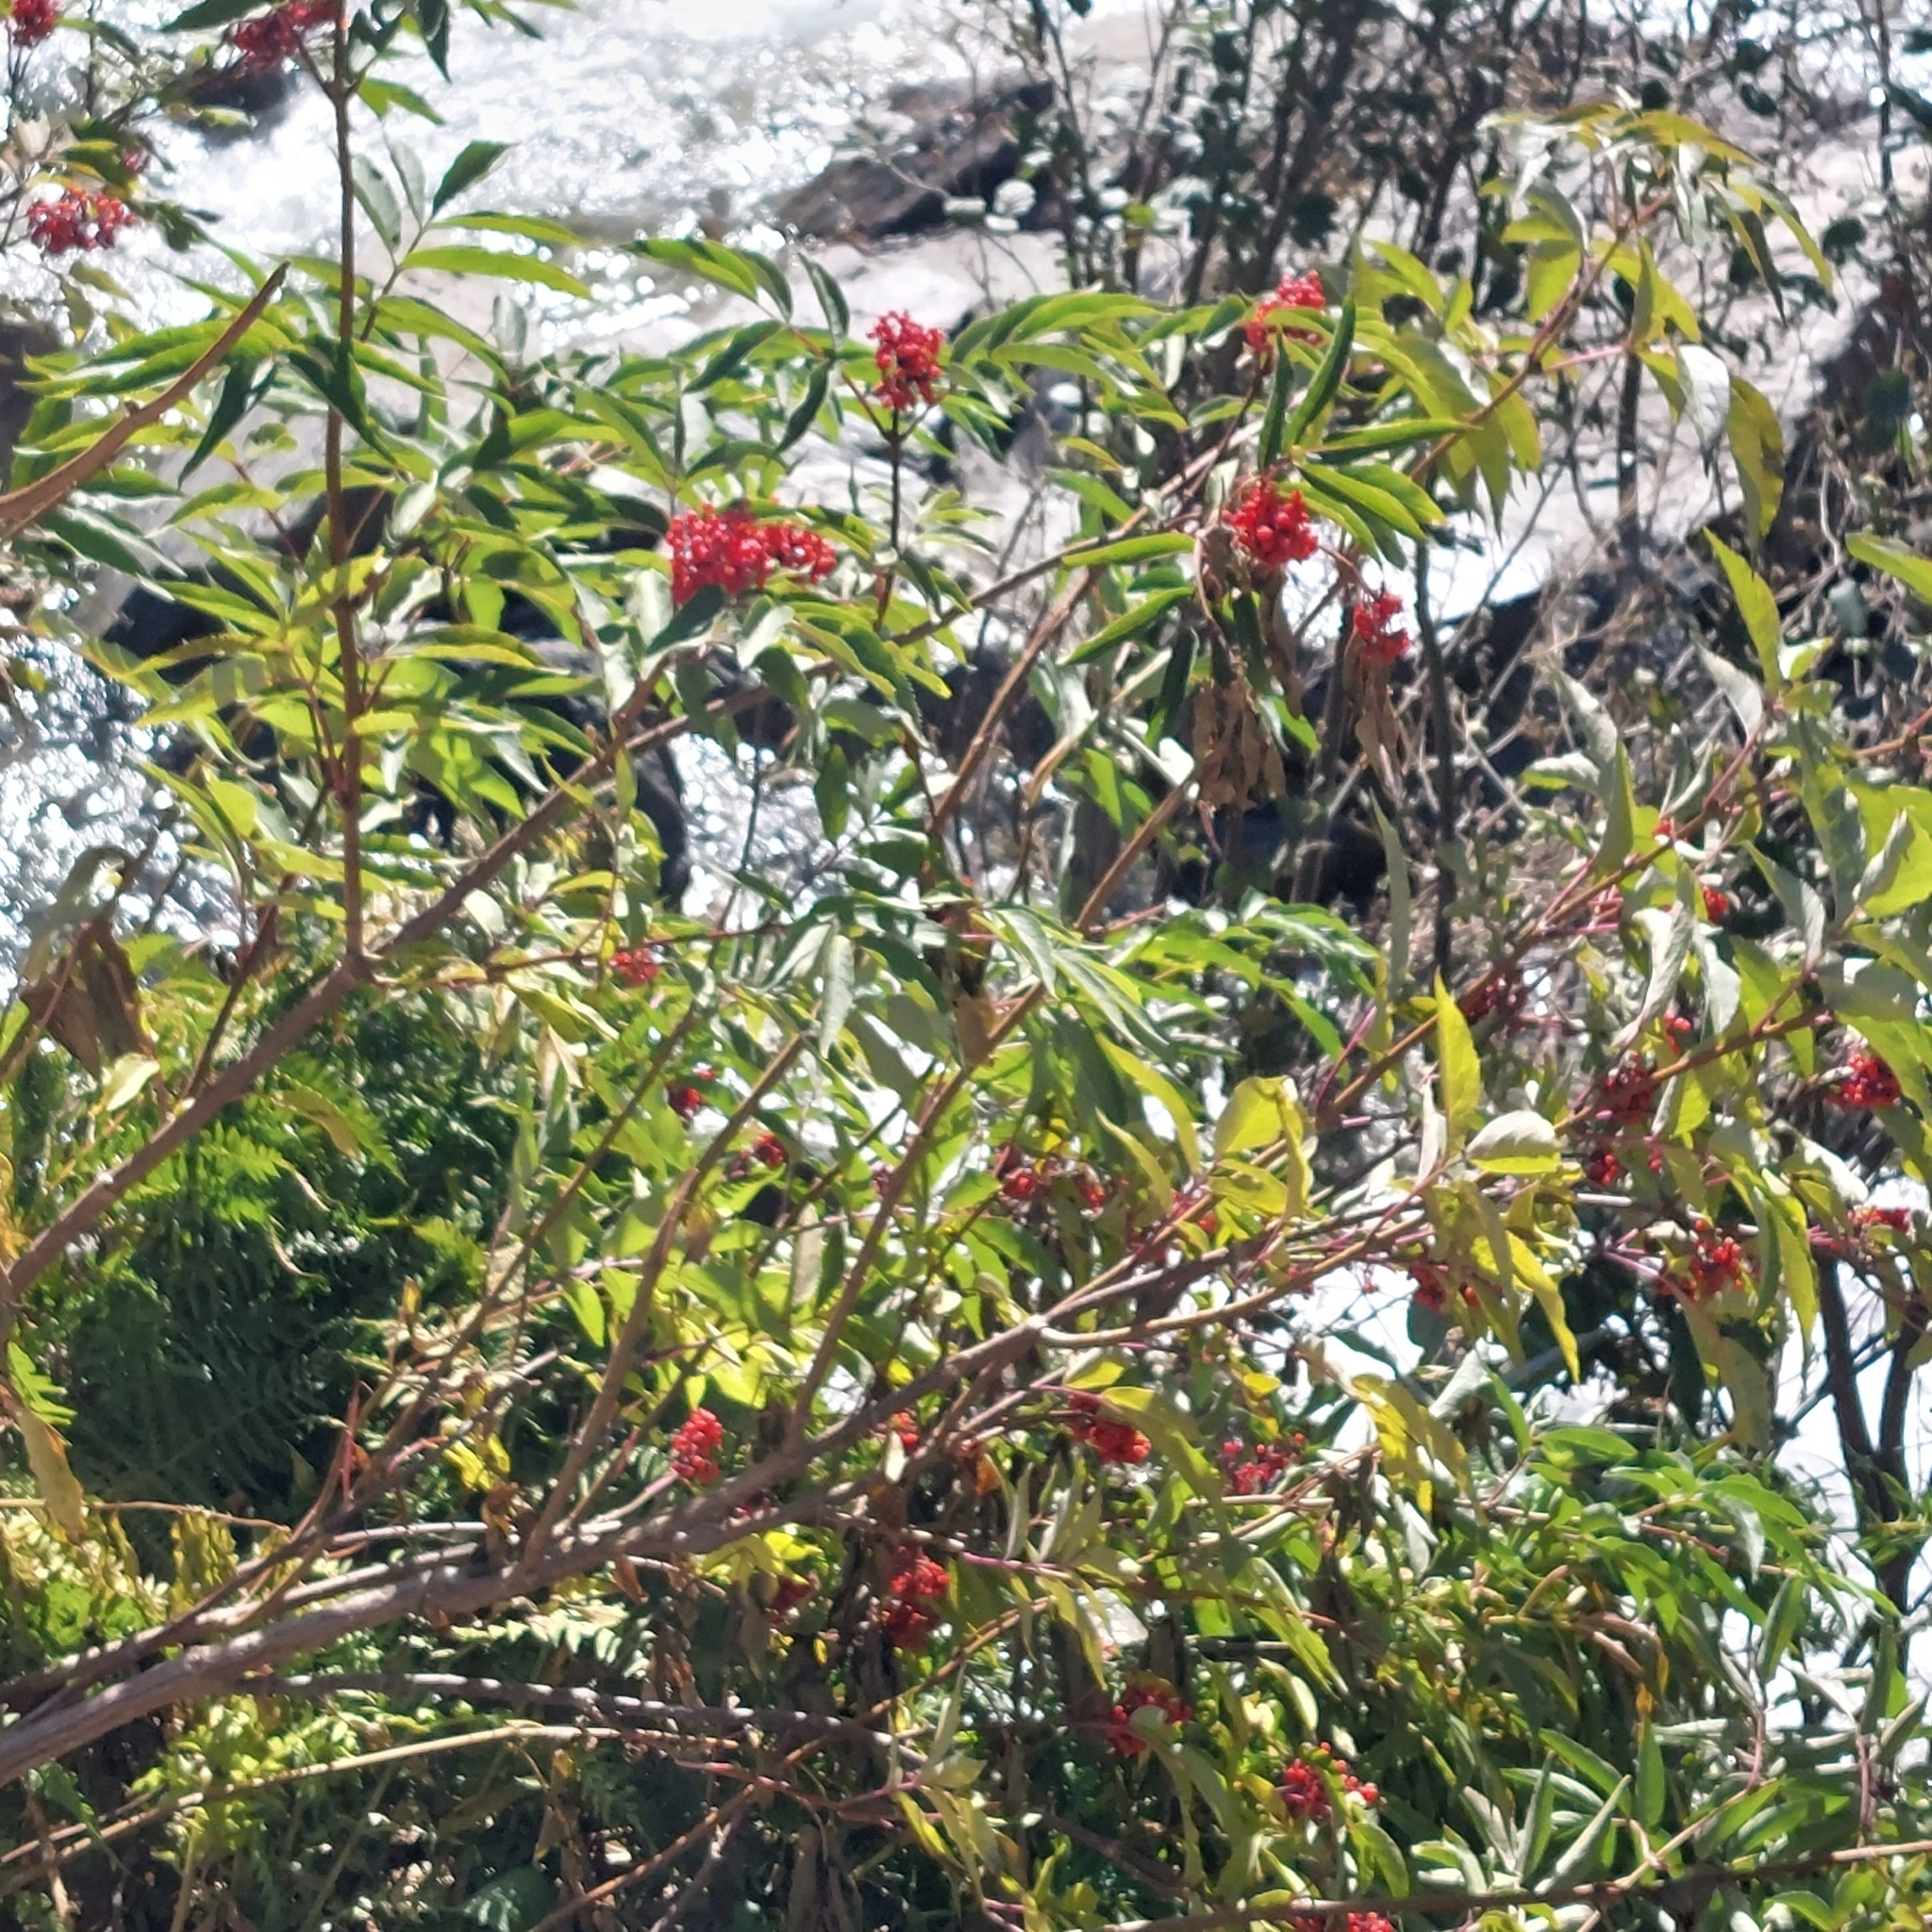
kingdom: Plantae
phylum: Tracheophyta
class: Magnoliopsida
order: Dipsacales
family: Viburnaceae
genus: Sambucus
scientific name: Sambucus racemosa
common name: Red-berried elder
